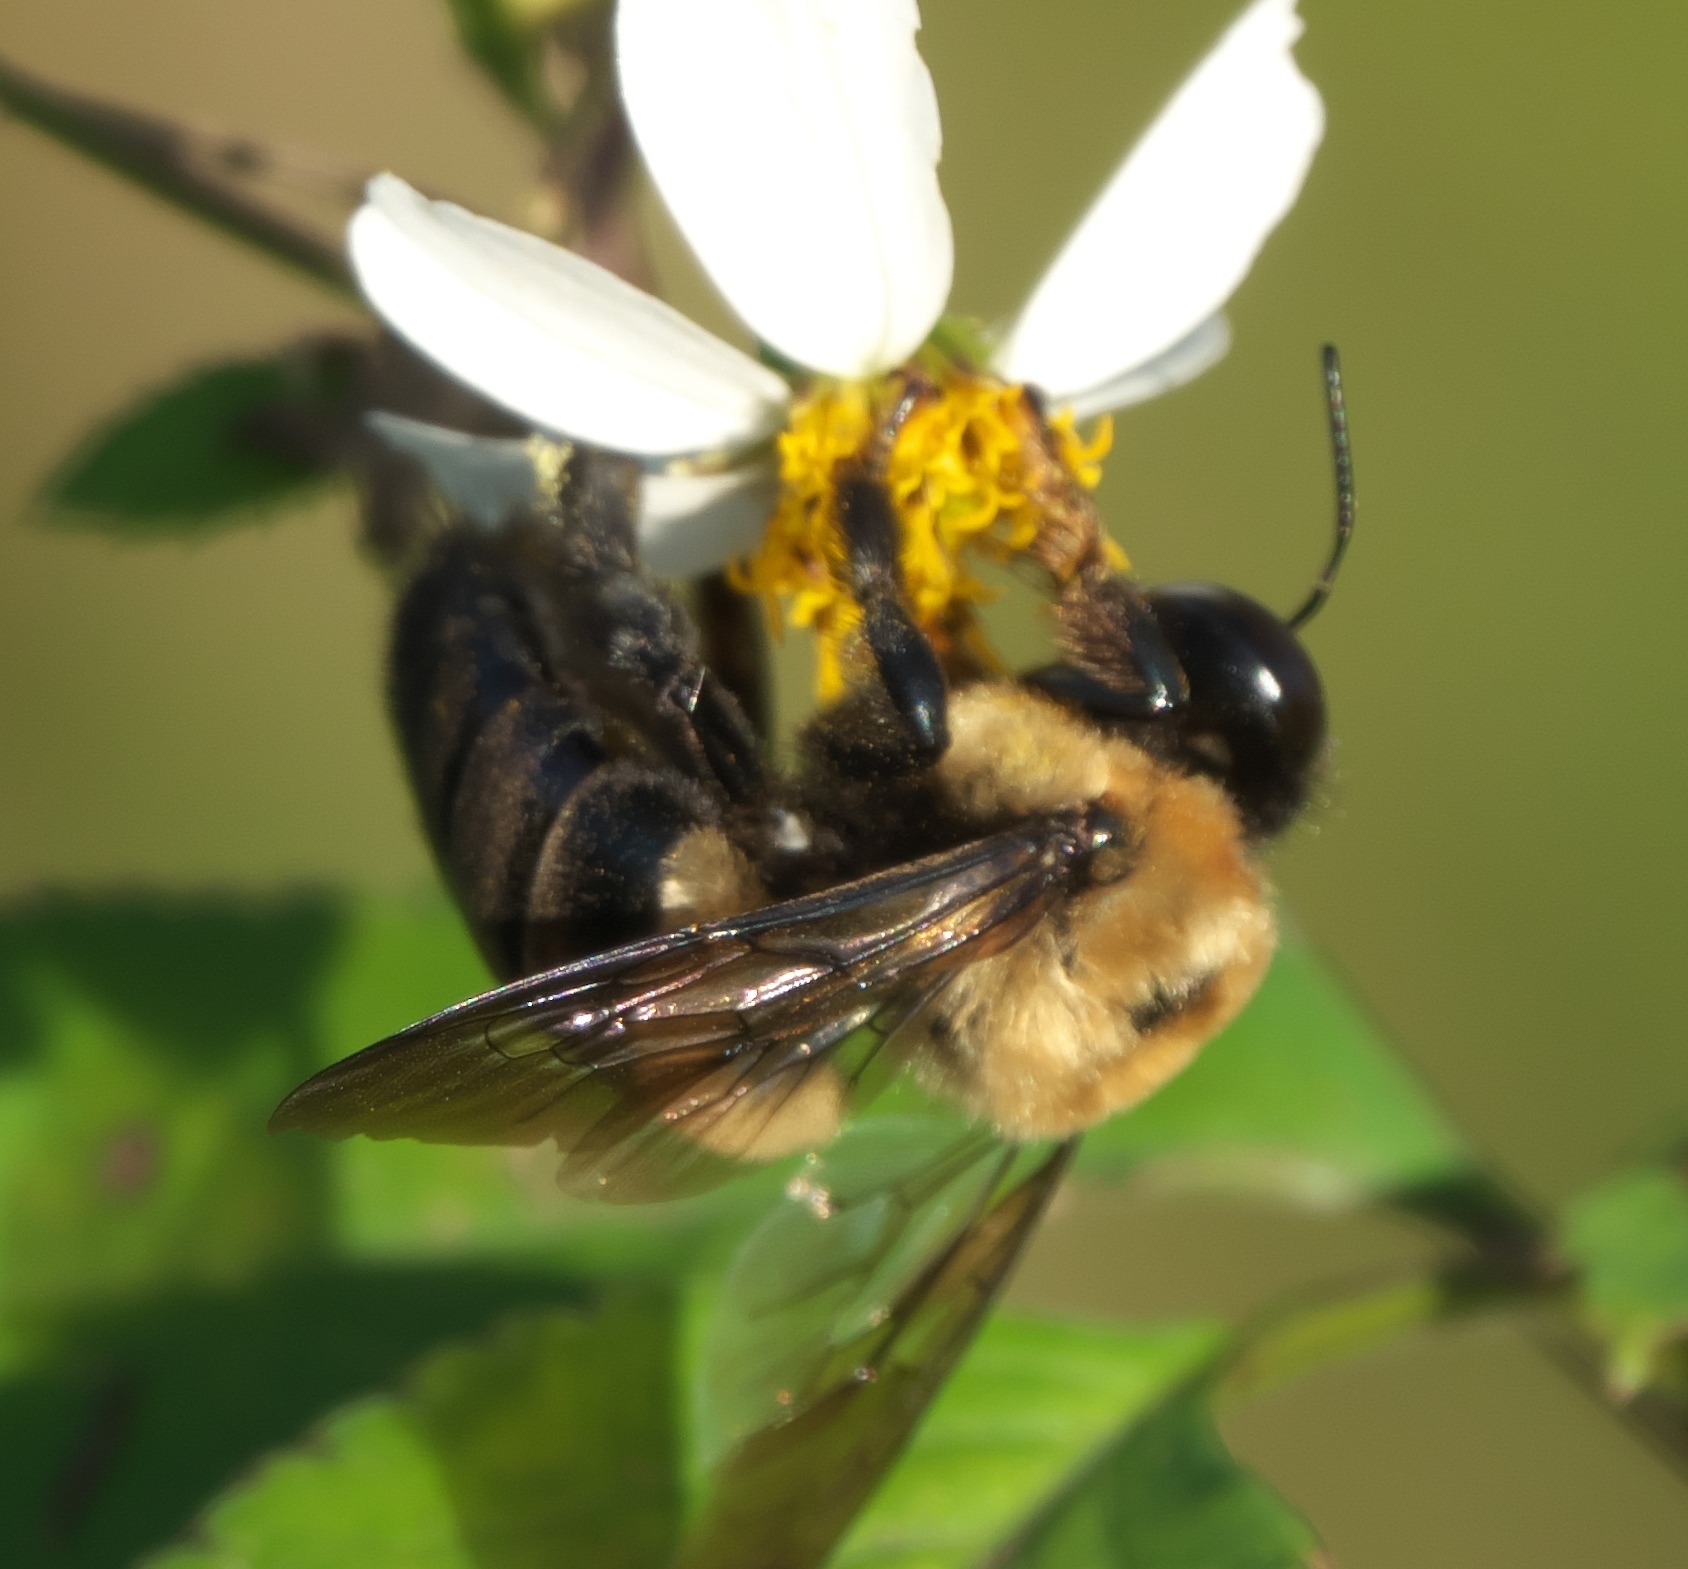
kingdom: Animalia
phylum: Arthropoda
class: Insecta
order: Hymenoptera
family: Apidae
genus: Xylocopa
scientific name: Xylocopa virginica
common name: Carpenter bee
